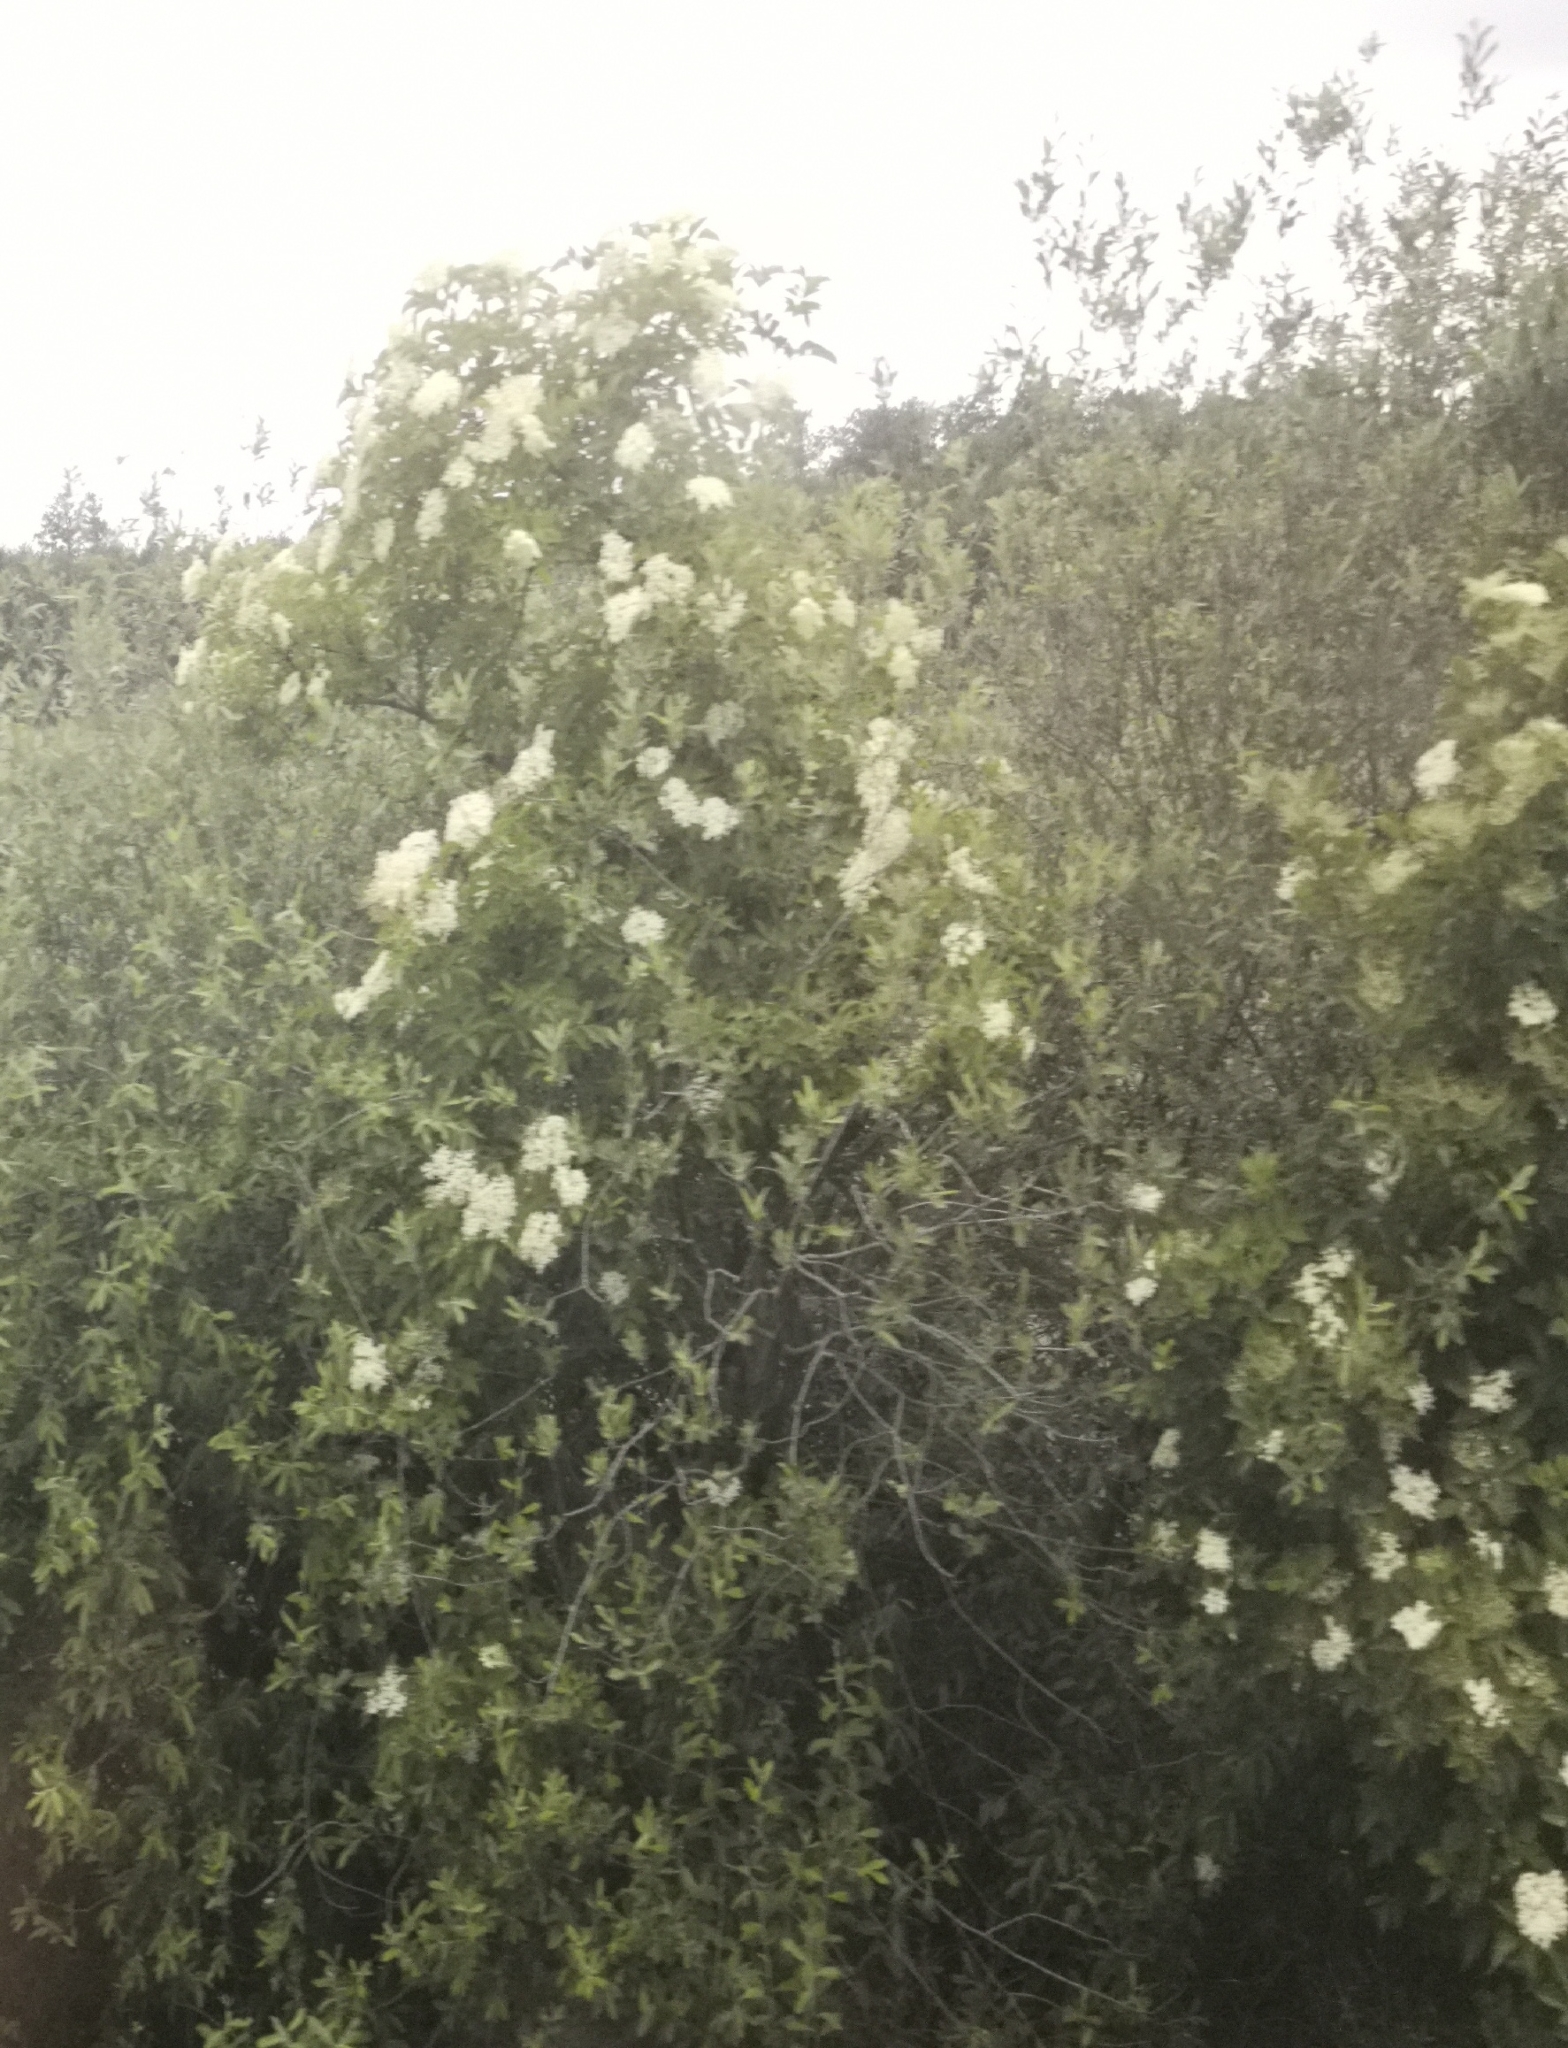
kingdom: Plantae
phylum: Tracheophyta
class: Magnoliopsida
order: Dipsacales
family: Viburnaceae
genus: Sambucus
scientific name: Sambucus nigra
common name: Elder
